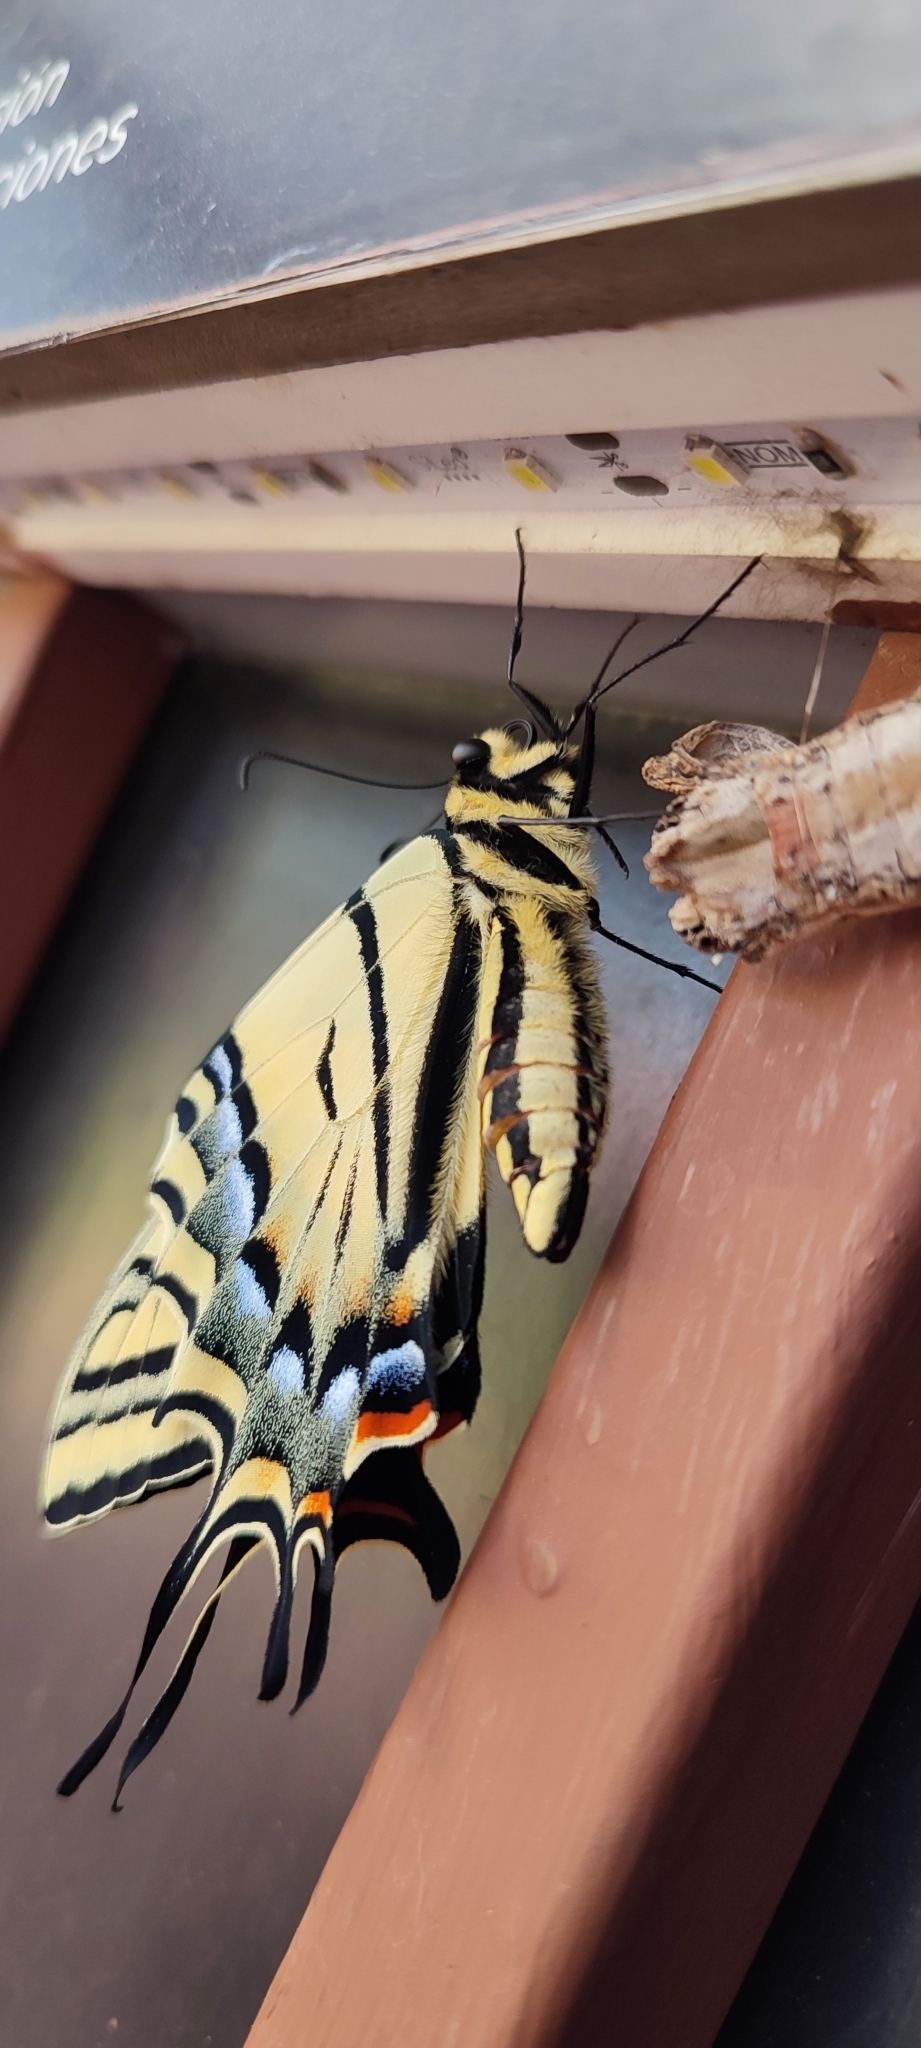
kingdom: Animalia
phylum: Arthropoda
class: Insecta
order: Lepidoptera
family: Papilionidae
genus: Papilio
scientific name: Papilio multicaudata
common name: Two-tailed tiger swallowtail
